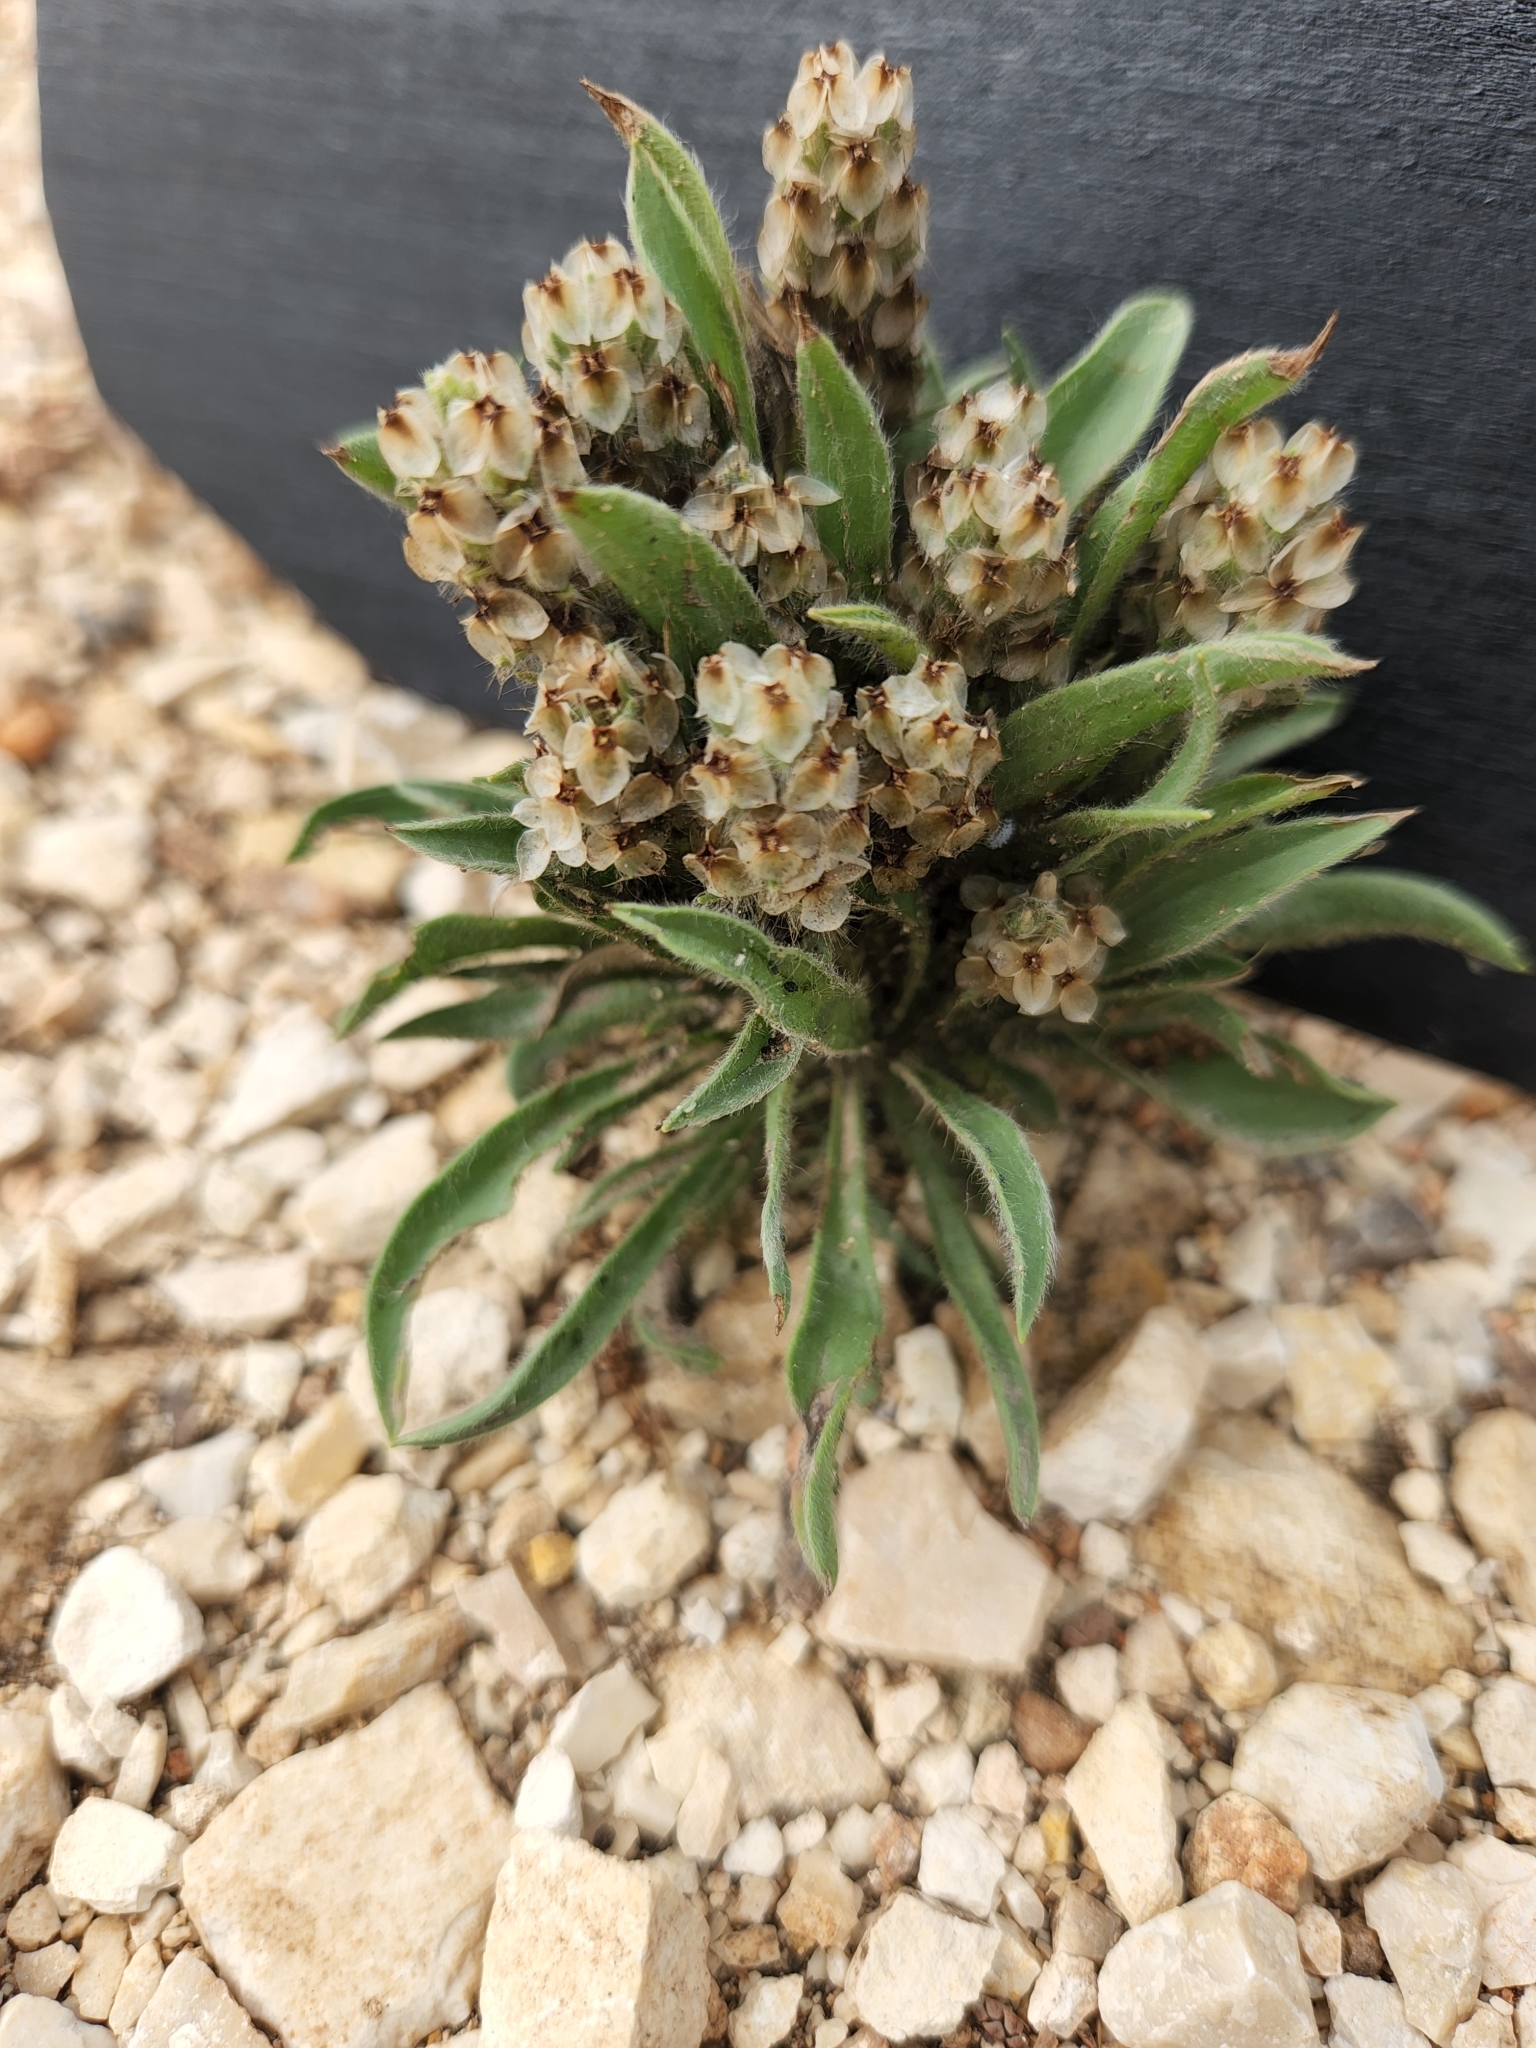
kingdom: Plantae
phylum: Tracheophyta
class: Magnoliopsida
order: Lamiales
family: Plantaginaceae
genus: Plantago
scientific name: Plantago helleri
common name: Heller's plantain
